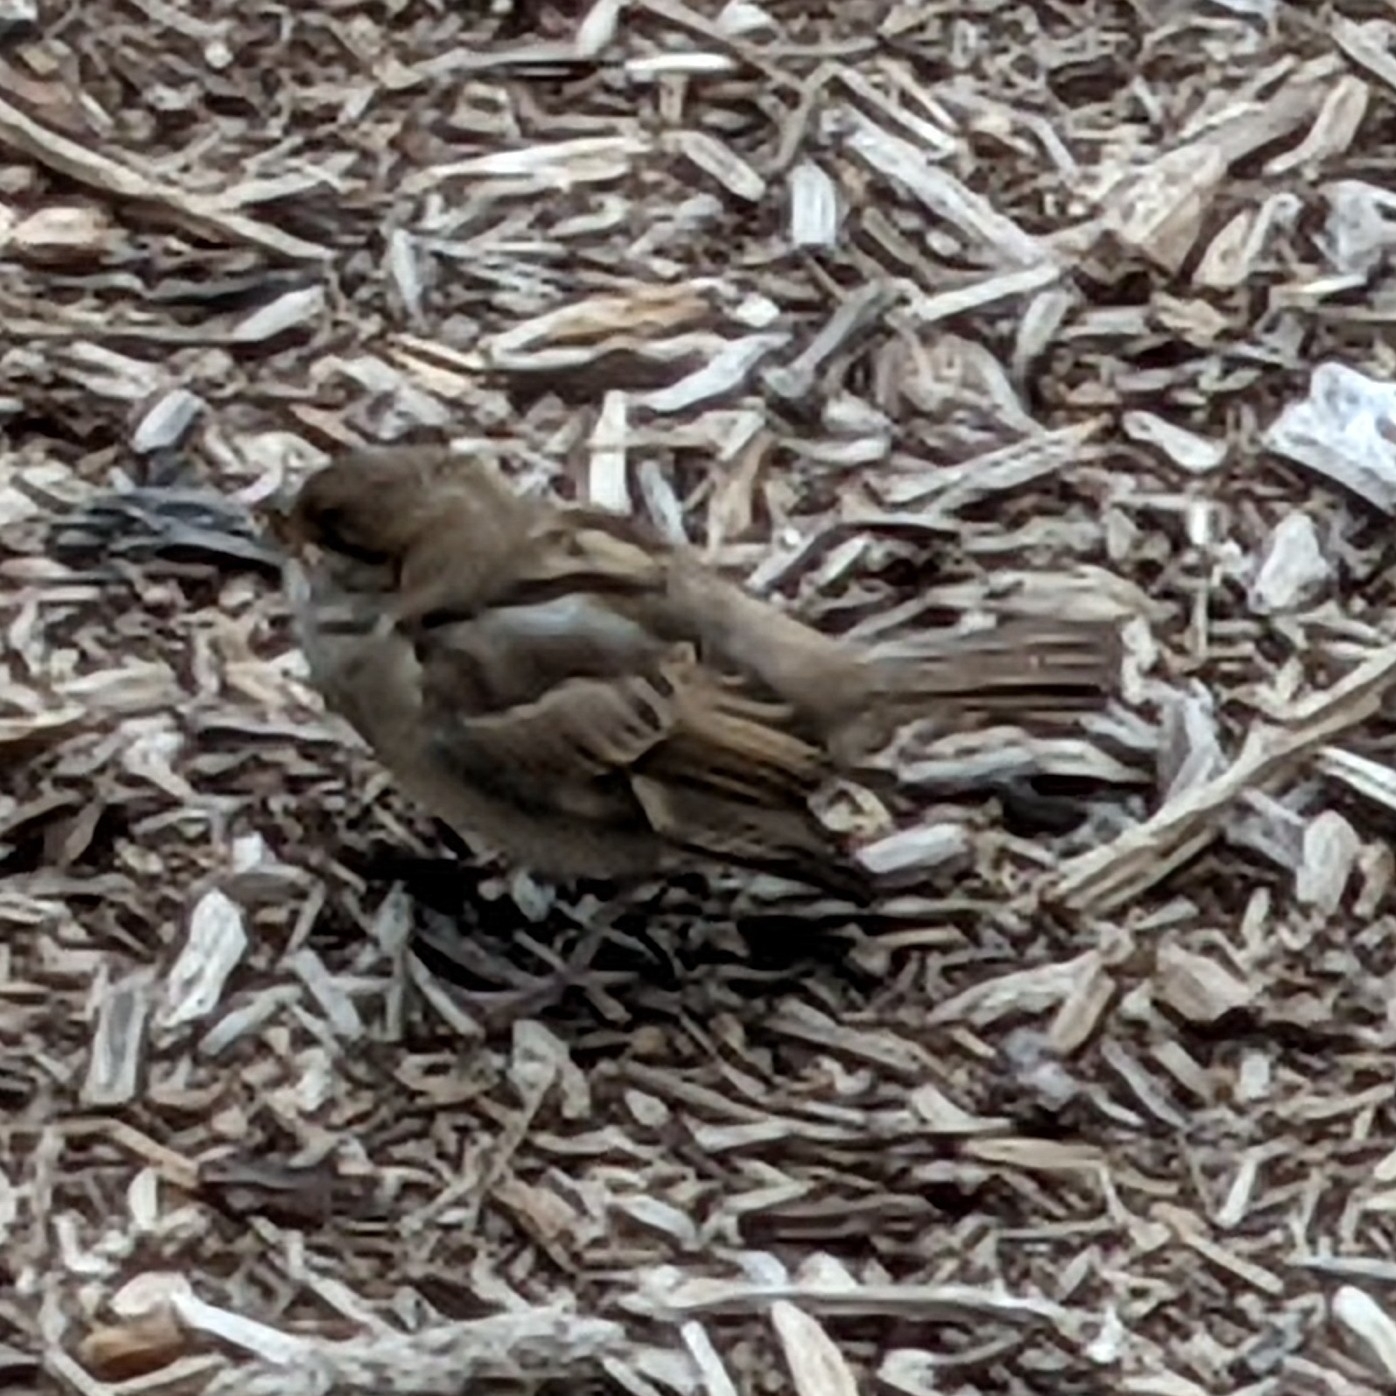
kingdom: Animalia
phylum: Chordata
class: Aves
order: Passeriformes
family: Passeridae
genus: Passer
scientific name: Passer domesticus
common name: House sparrow
